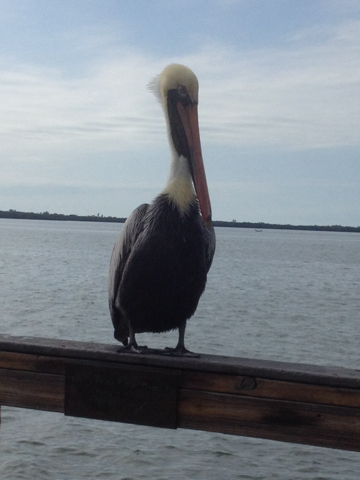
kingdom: Animalia
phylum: Chordata
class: Aves
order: Pelecaniformes
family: Pelecanidae
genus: Pelecanus
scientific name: Pelecanus occidentalis
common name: Brown pelican
